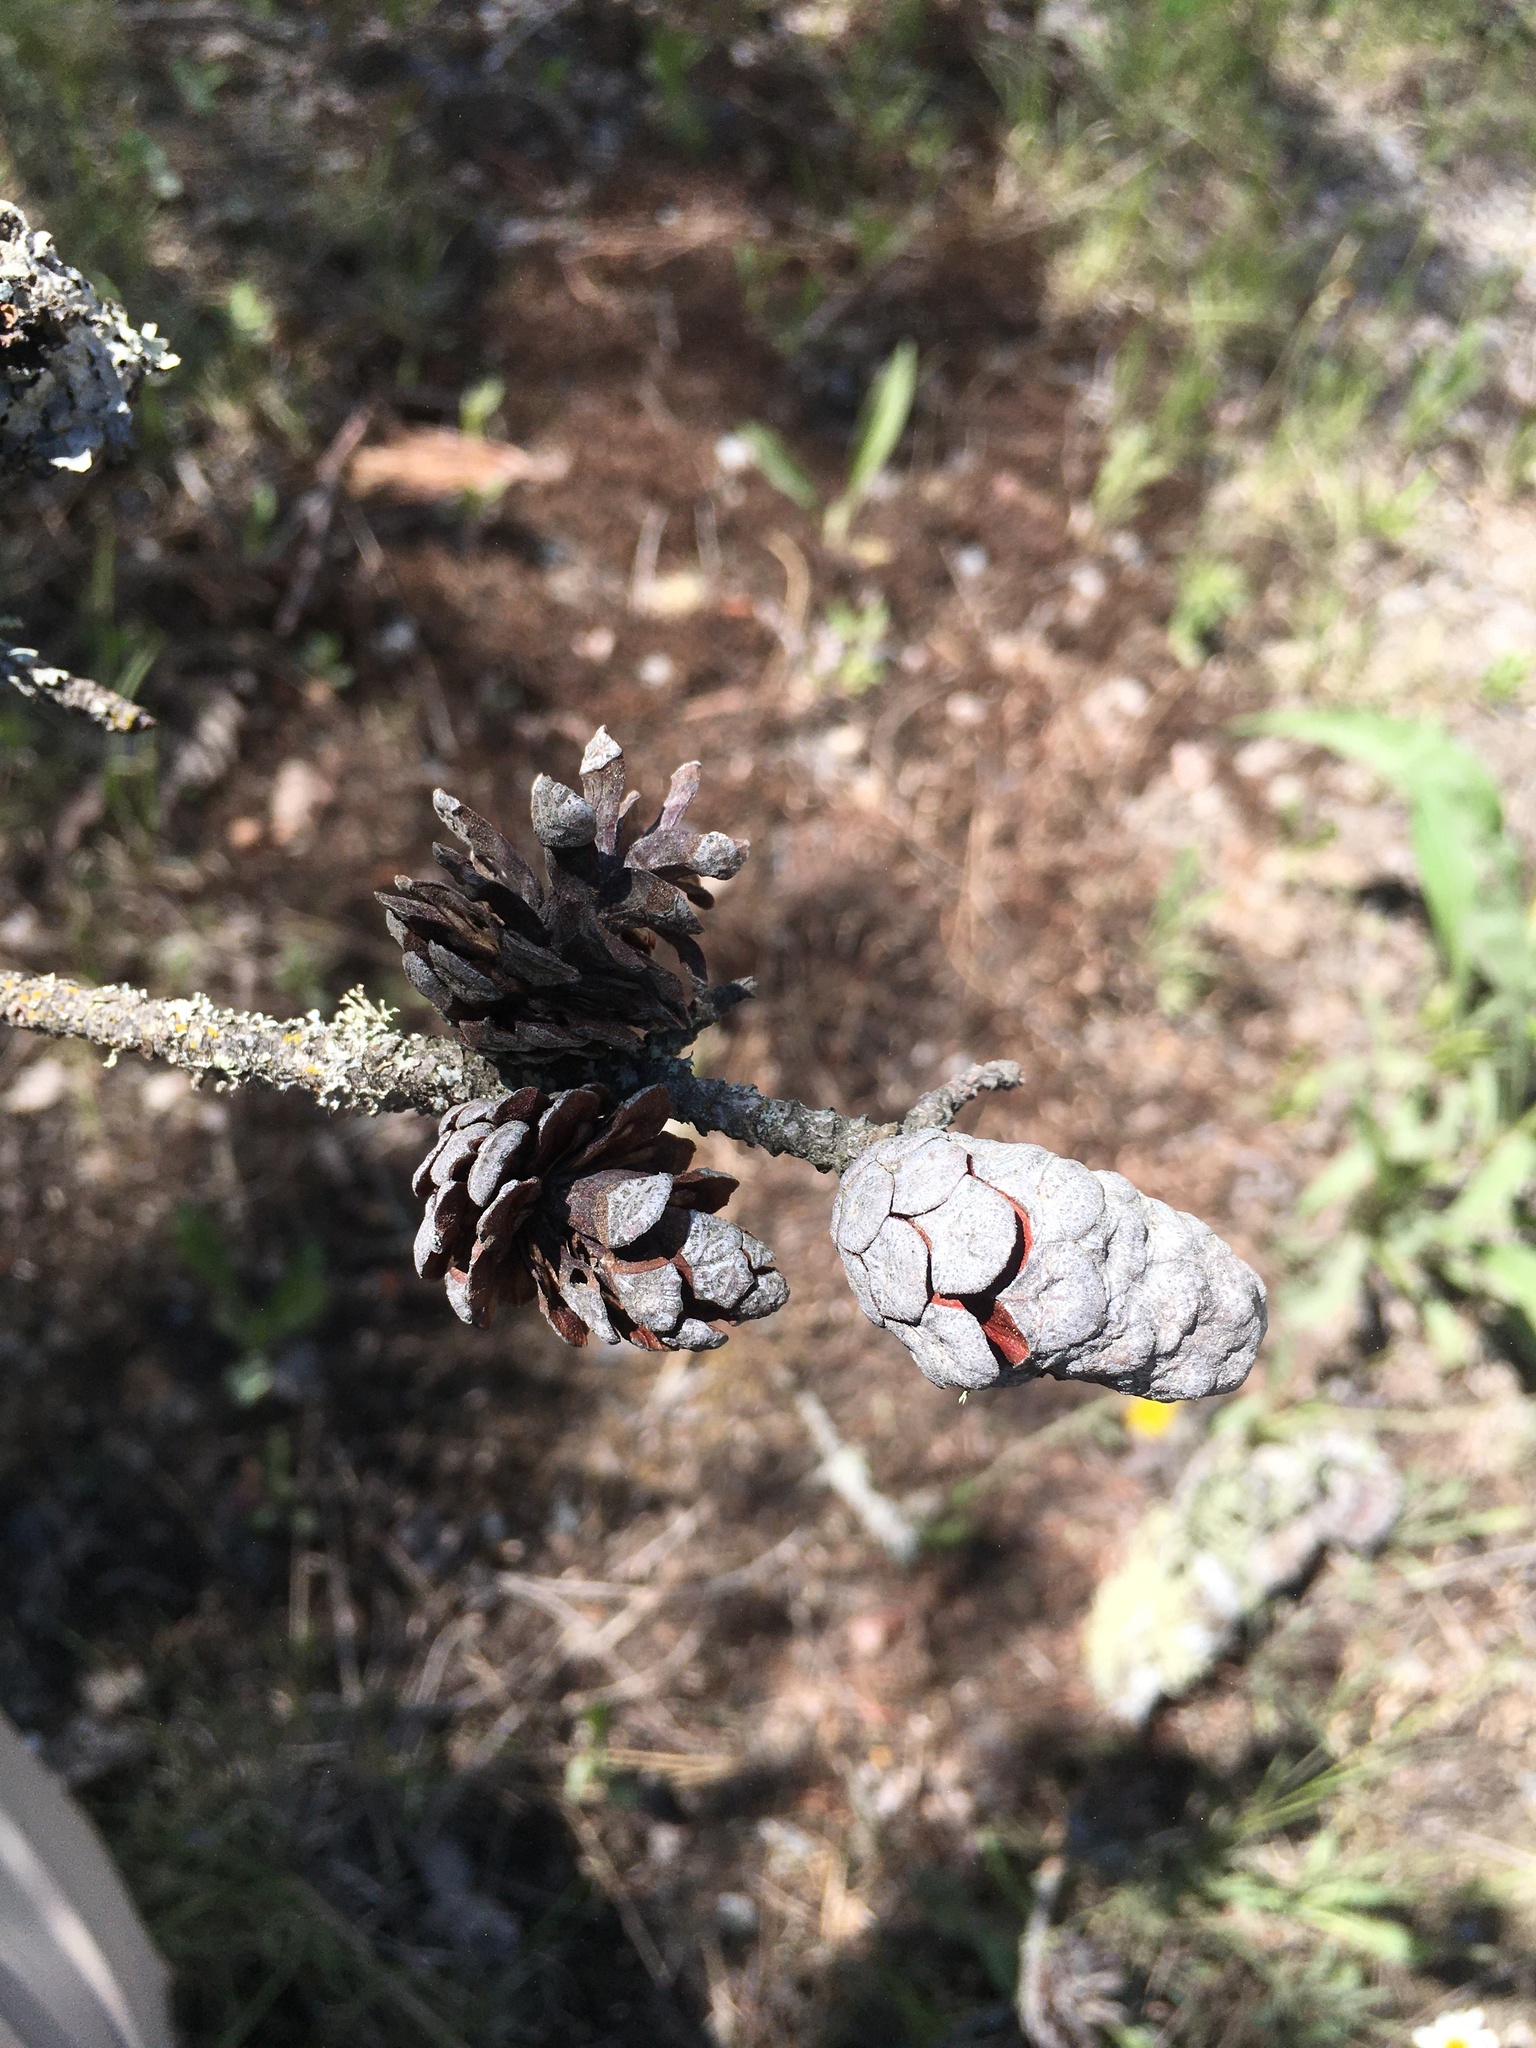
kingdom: Plantae
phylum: Tracheophyta
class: Pinopsida
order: Pinales
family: Pinaceae
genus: Pinus
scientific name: Pinus banksiana
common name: Jack pine
